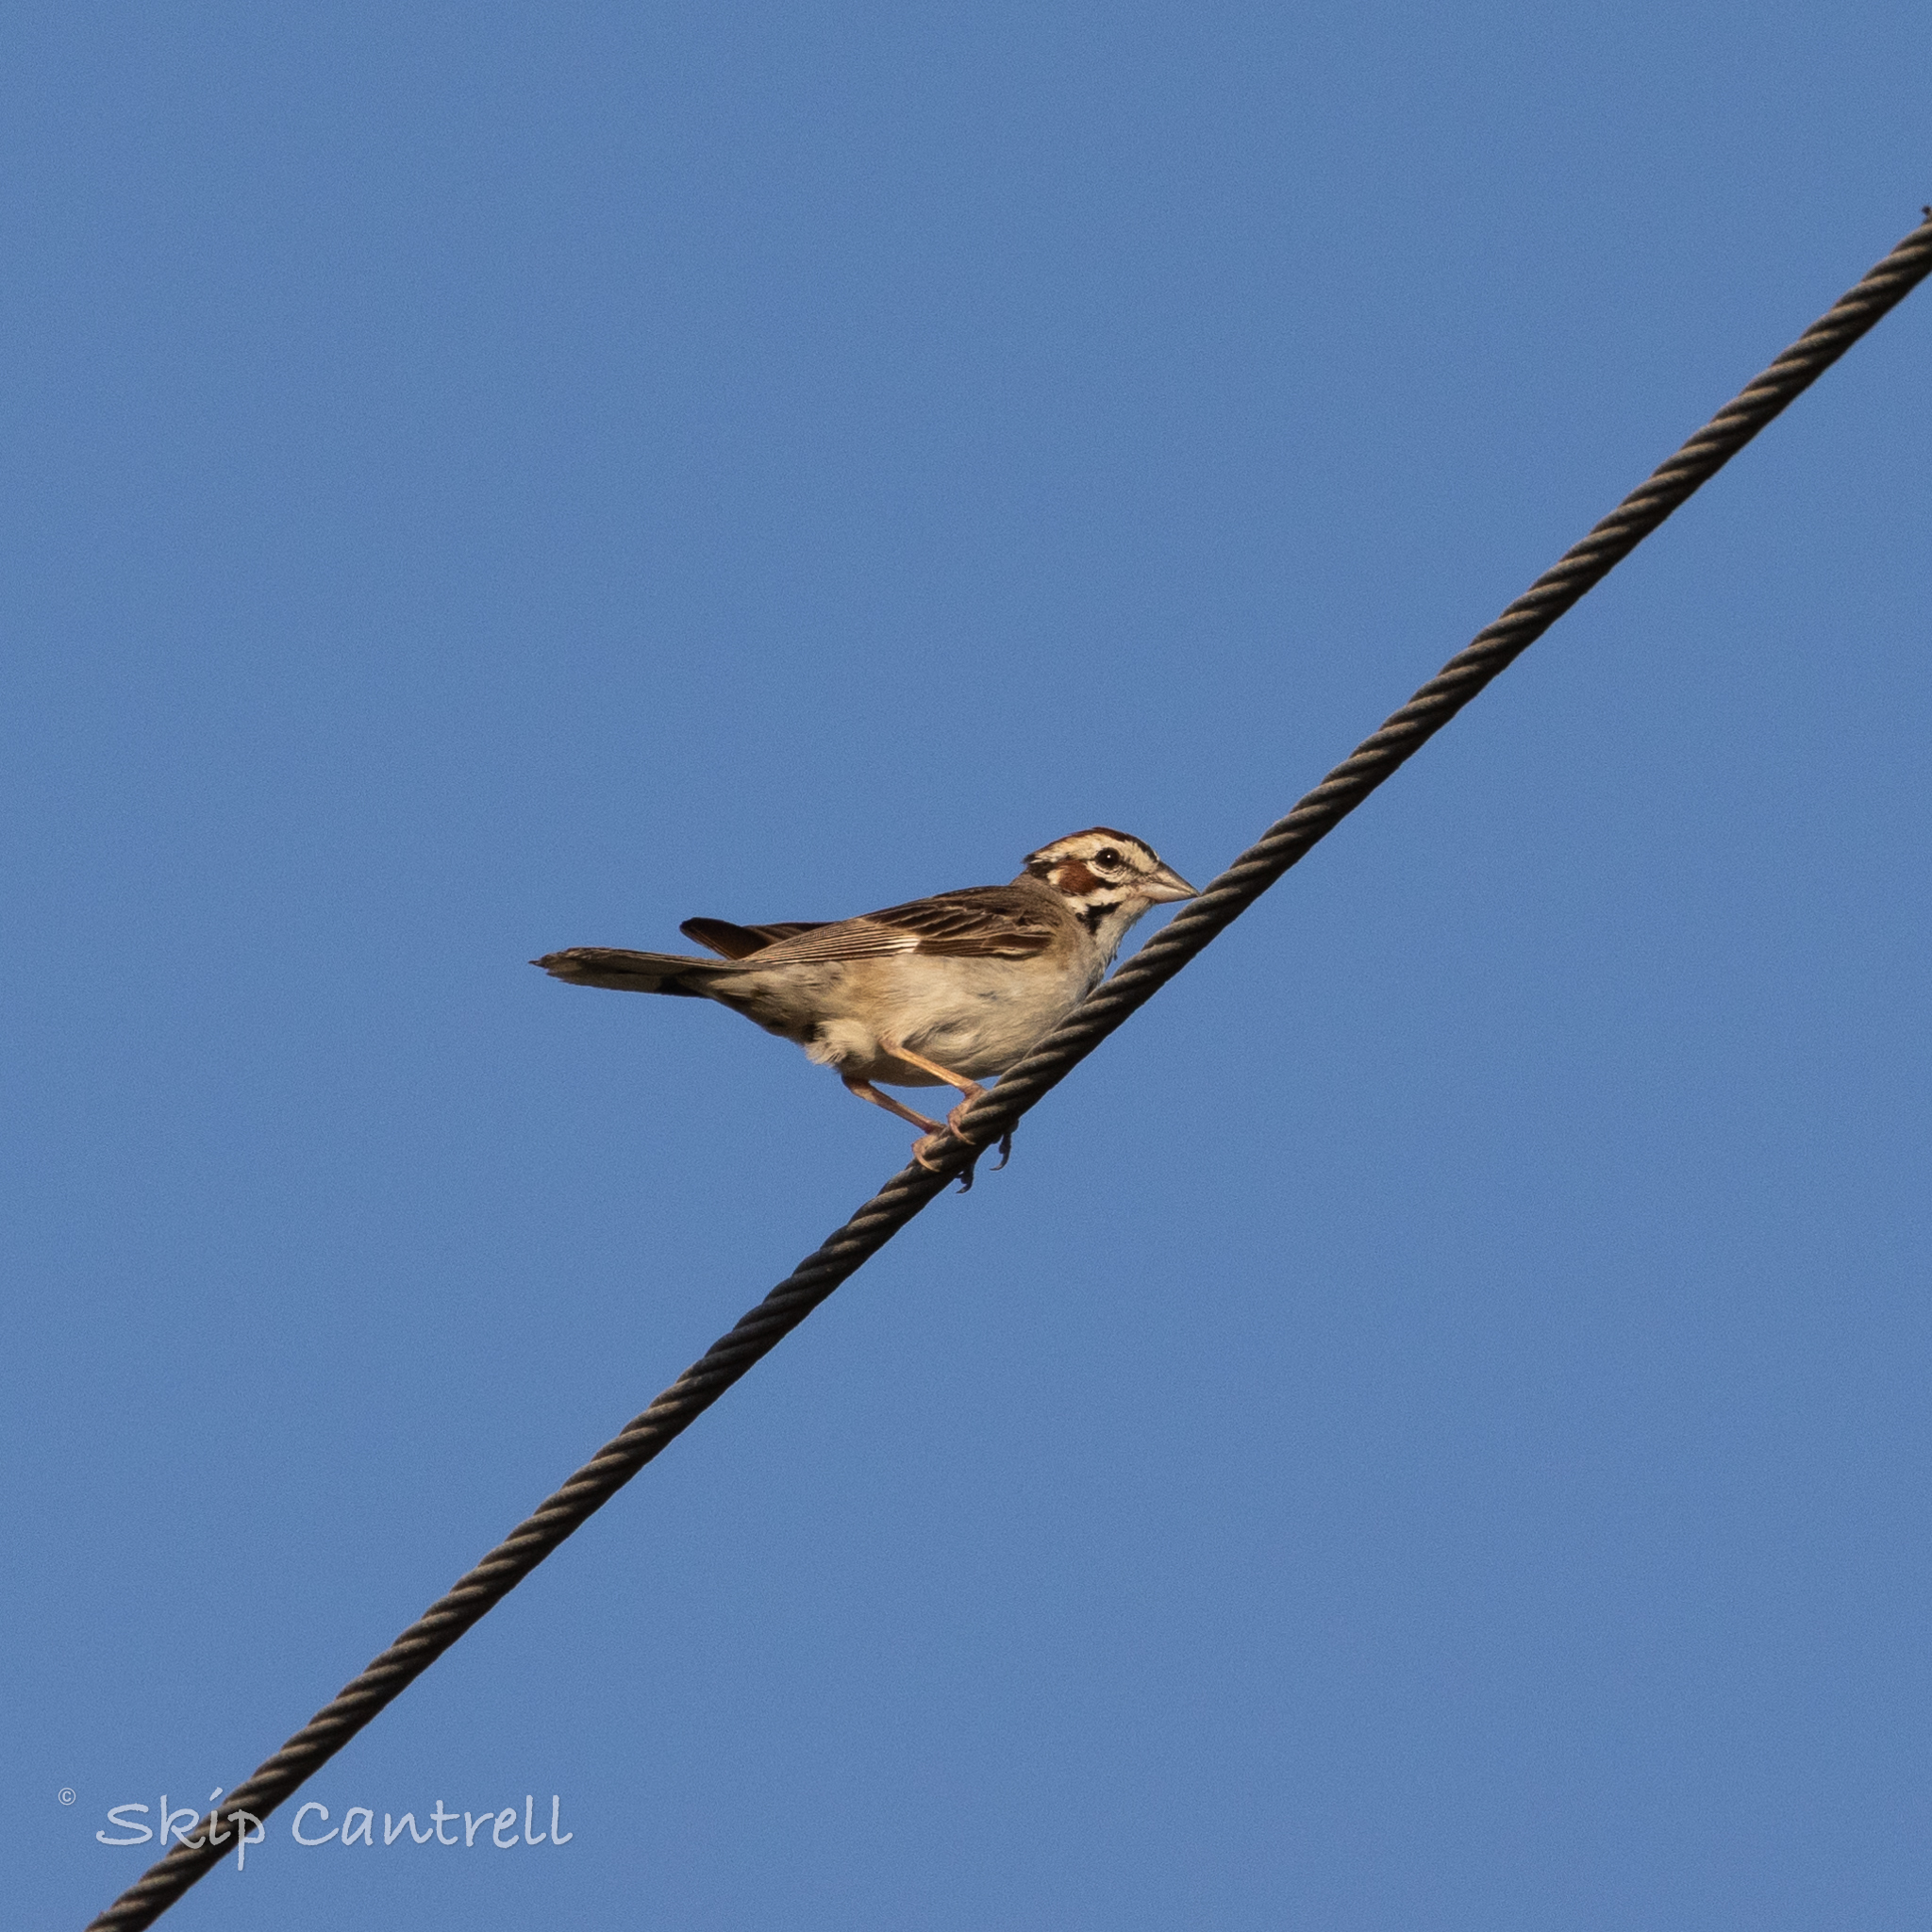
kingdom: Animalia
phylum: Chordata
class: Aves
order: Passeriformes
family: Passerellidae
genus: Chondestes
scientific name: Chondestes grammacus
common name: Lark sparrow
